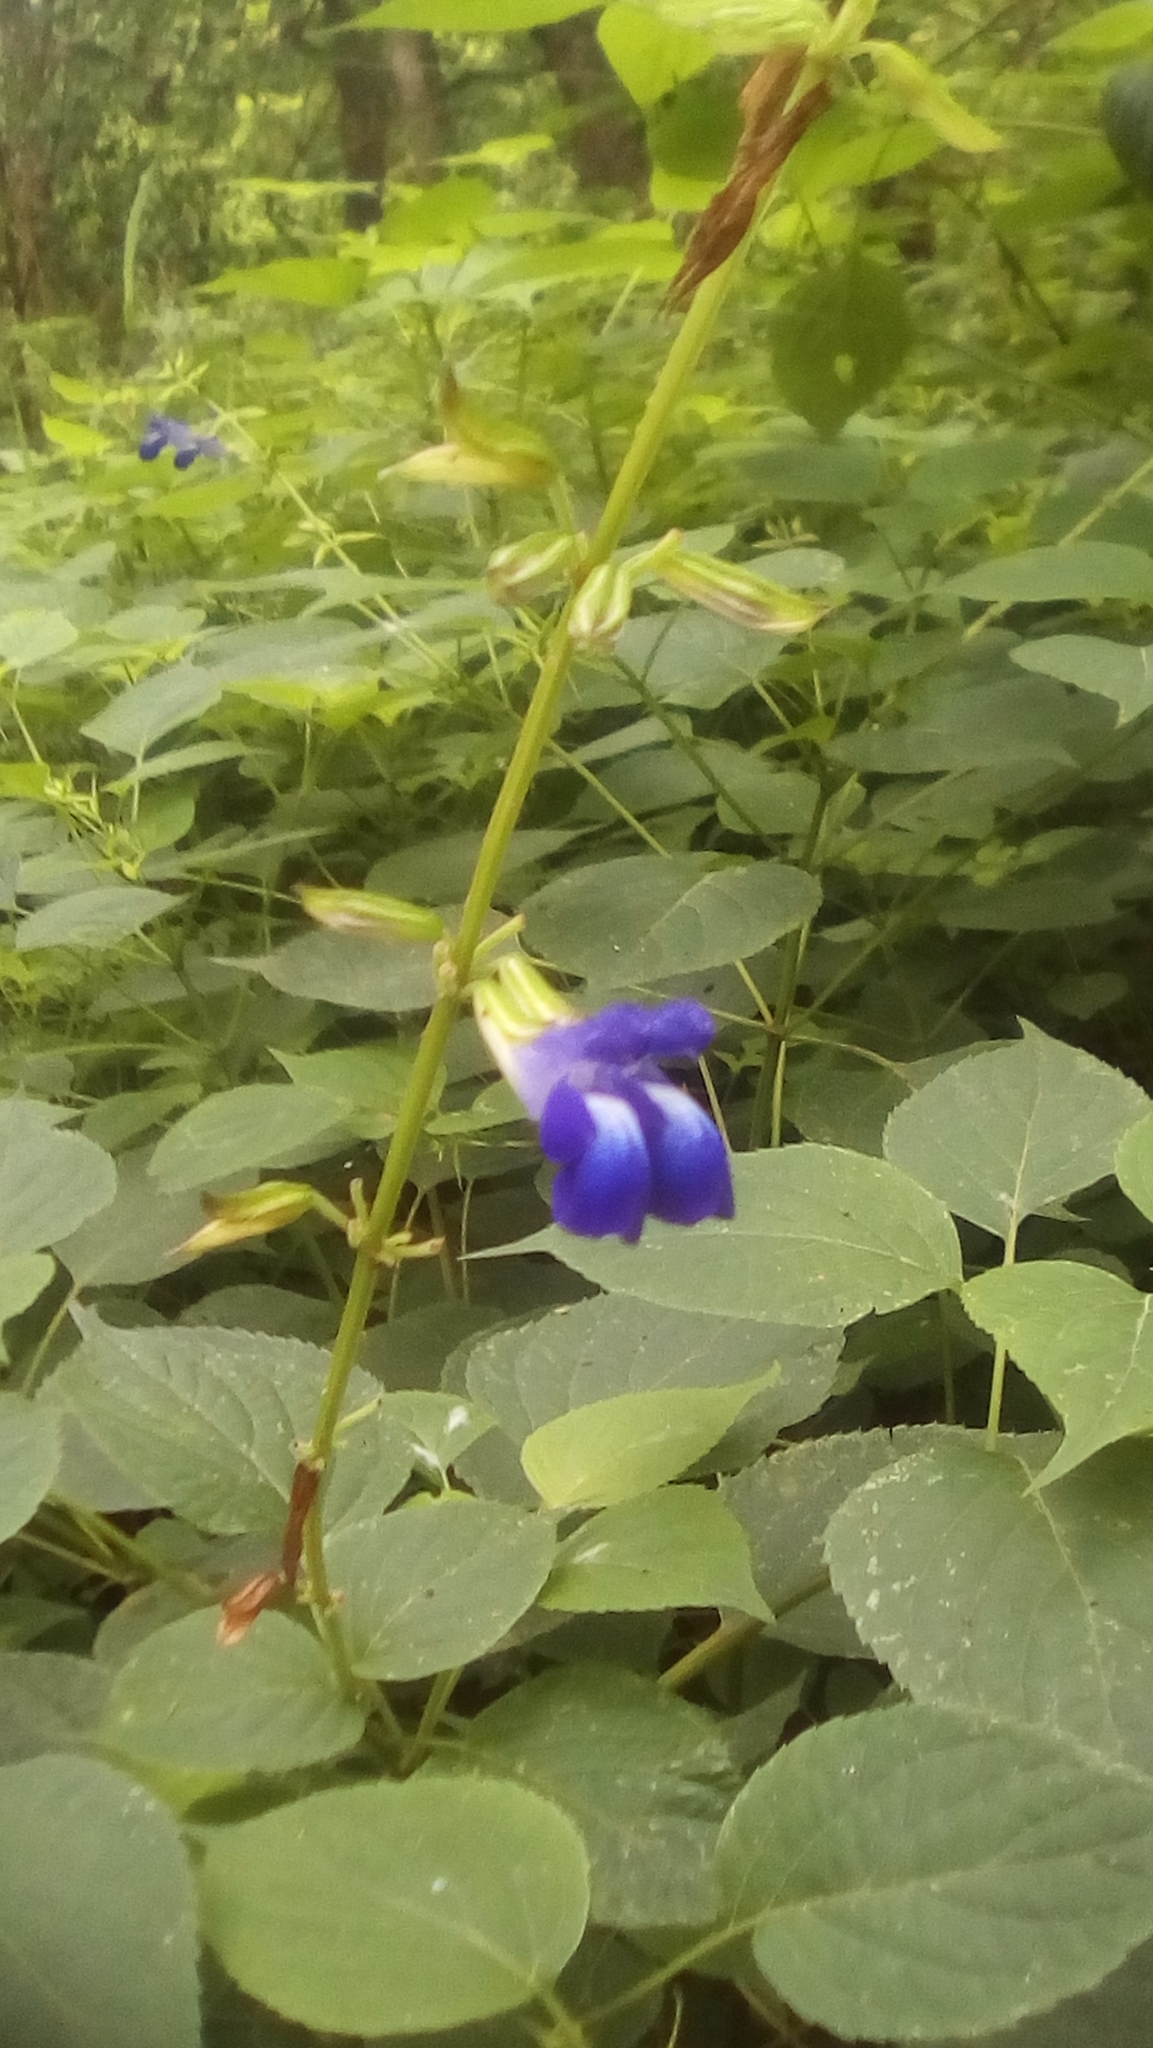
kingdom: Plantae
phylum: Tracheophyta
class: Magnoliopsida
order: Lamiales
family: Lamiaceae
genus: Salvia
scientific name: Salvia caudata
